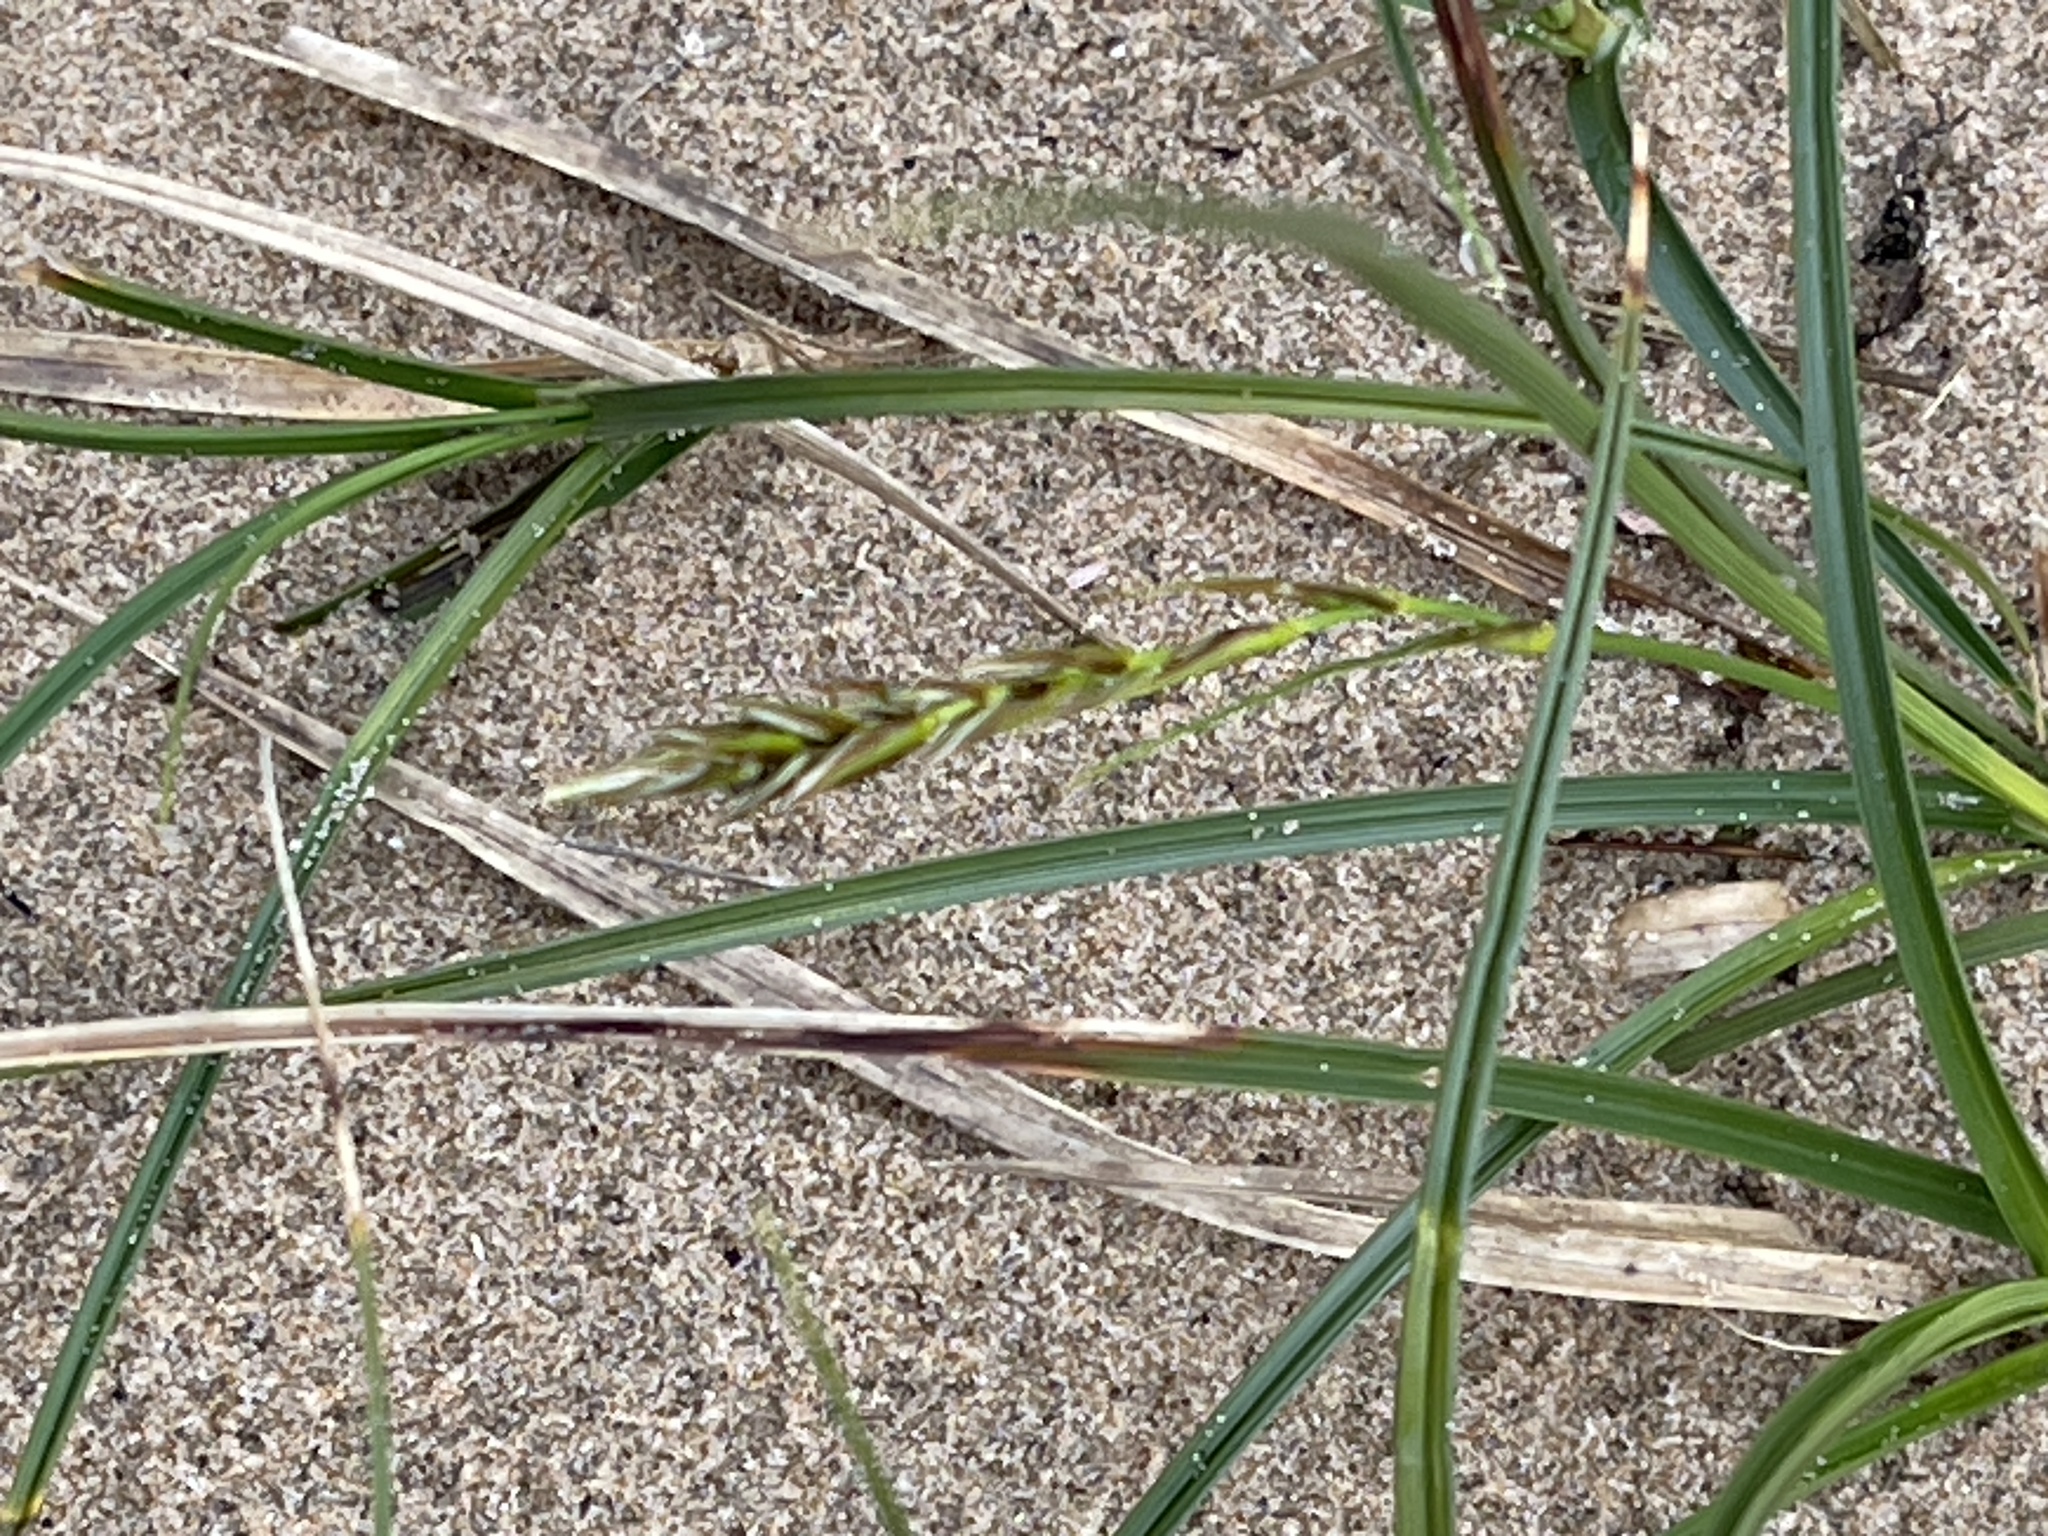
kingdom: Plantae
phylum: Tracheophyta
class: Liliopsida
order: Poales
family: Cyperaceae
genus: Carex
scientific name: Carex arenaria
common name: Sand sedge
